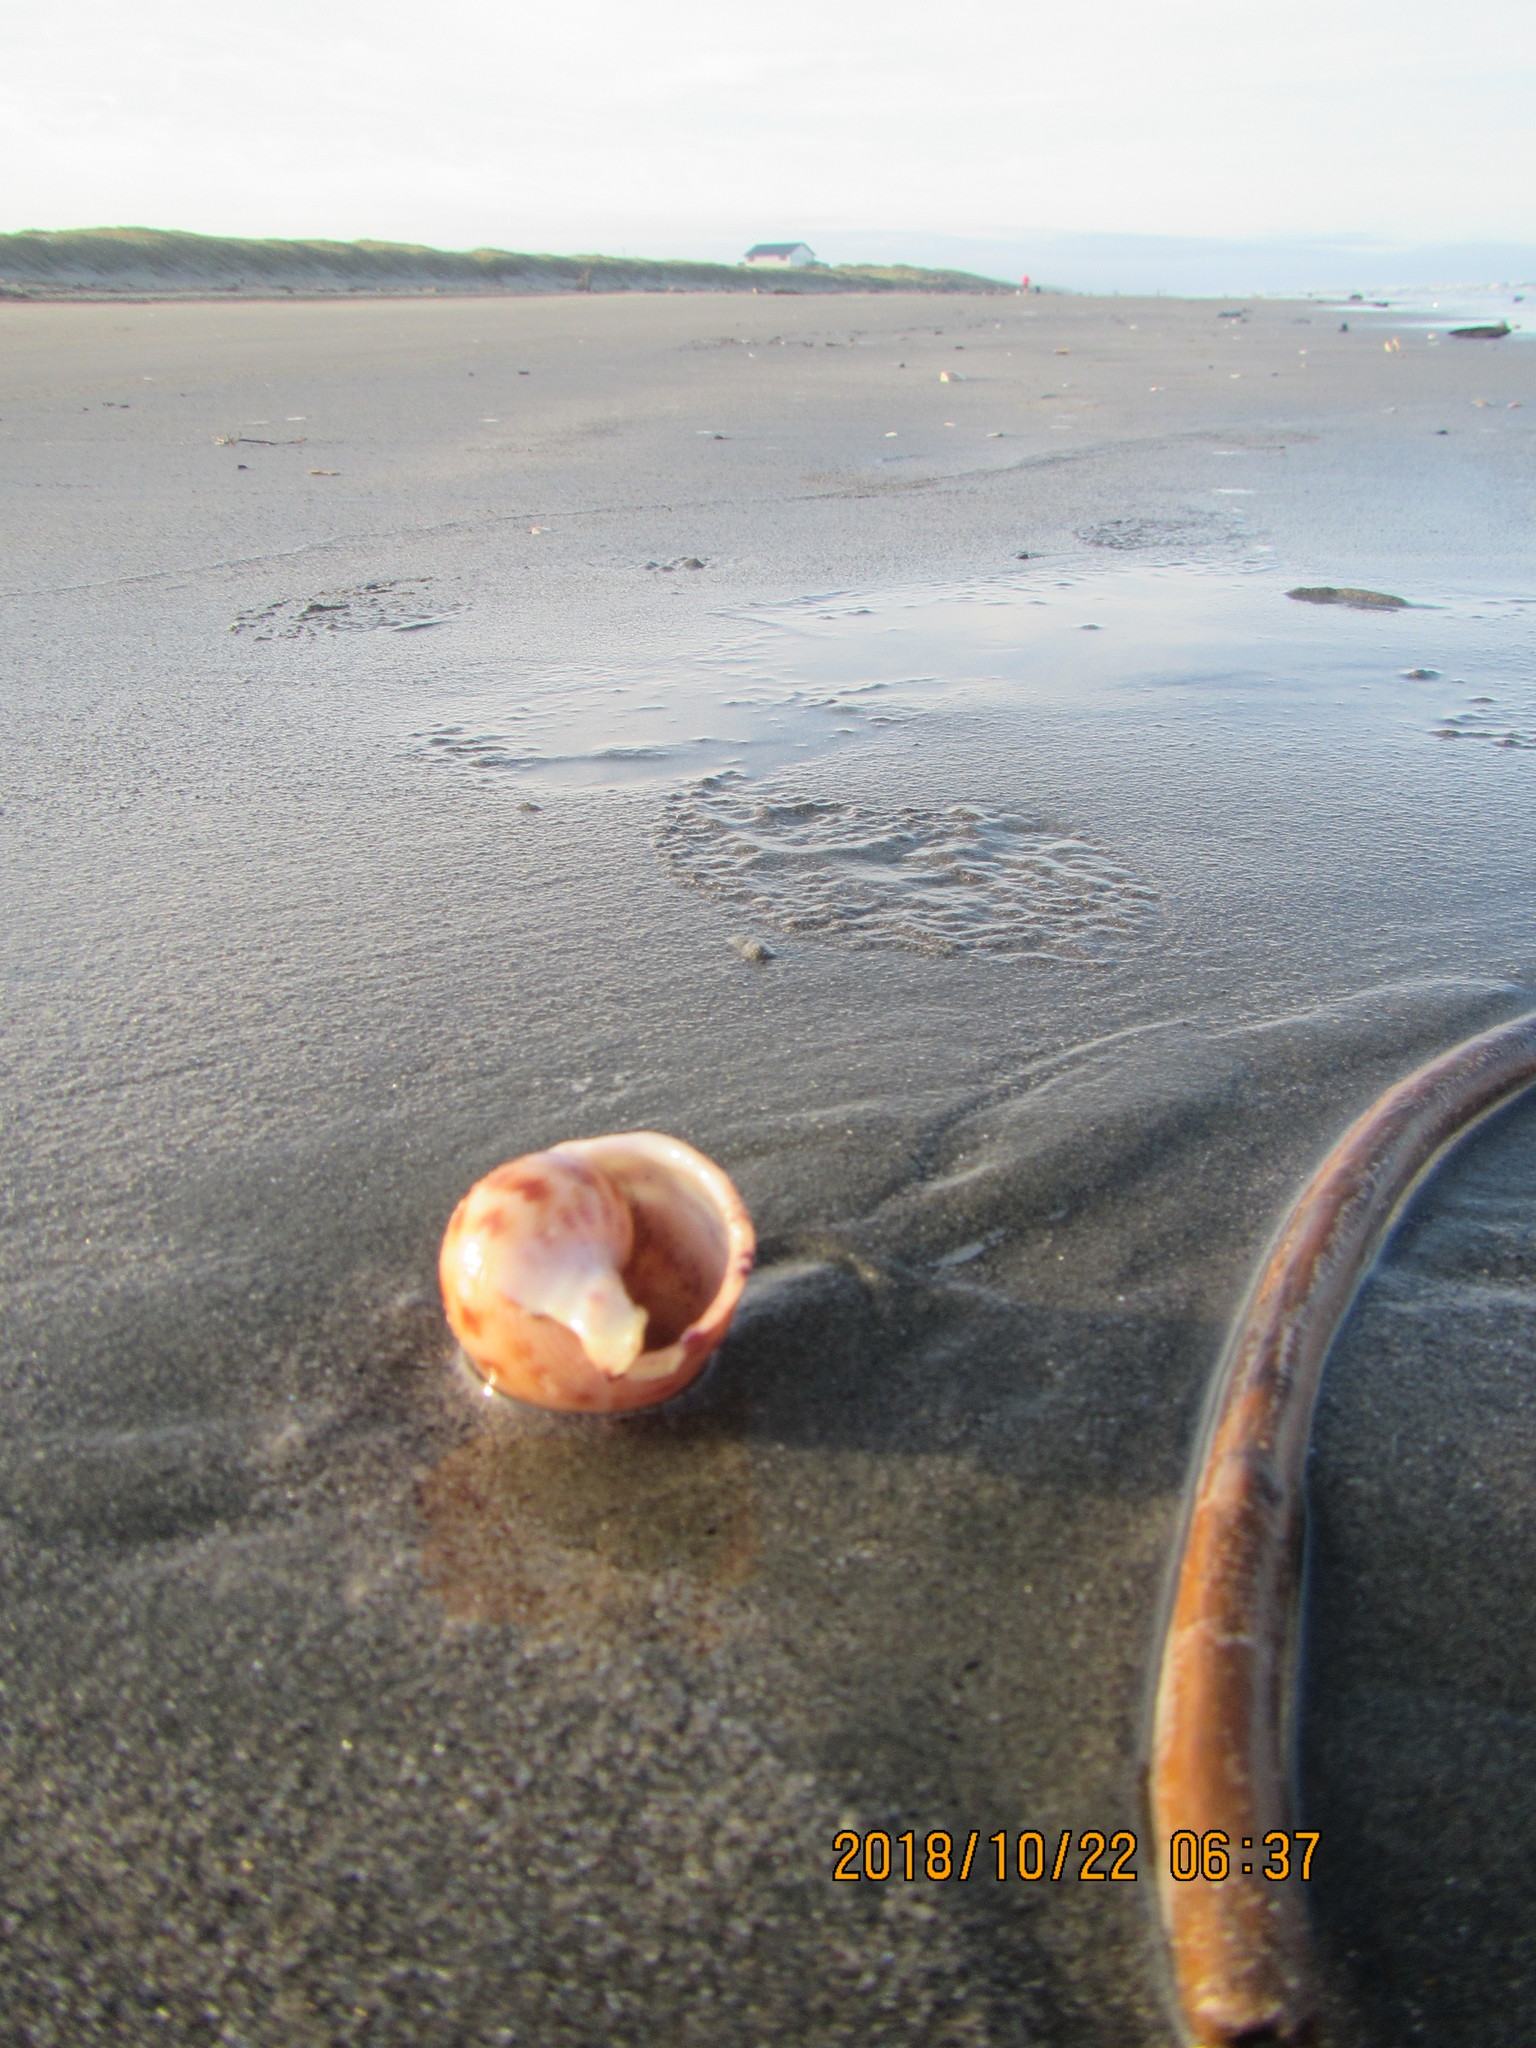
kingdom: Animalia
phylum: Mollusca
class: Gastropoda
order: Littorinimorpha
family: Cassidae
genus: Semicassis
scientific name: Semicassis pyrum
